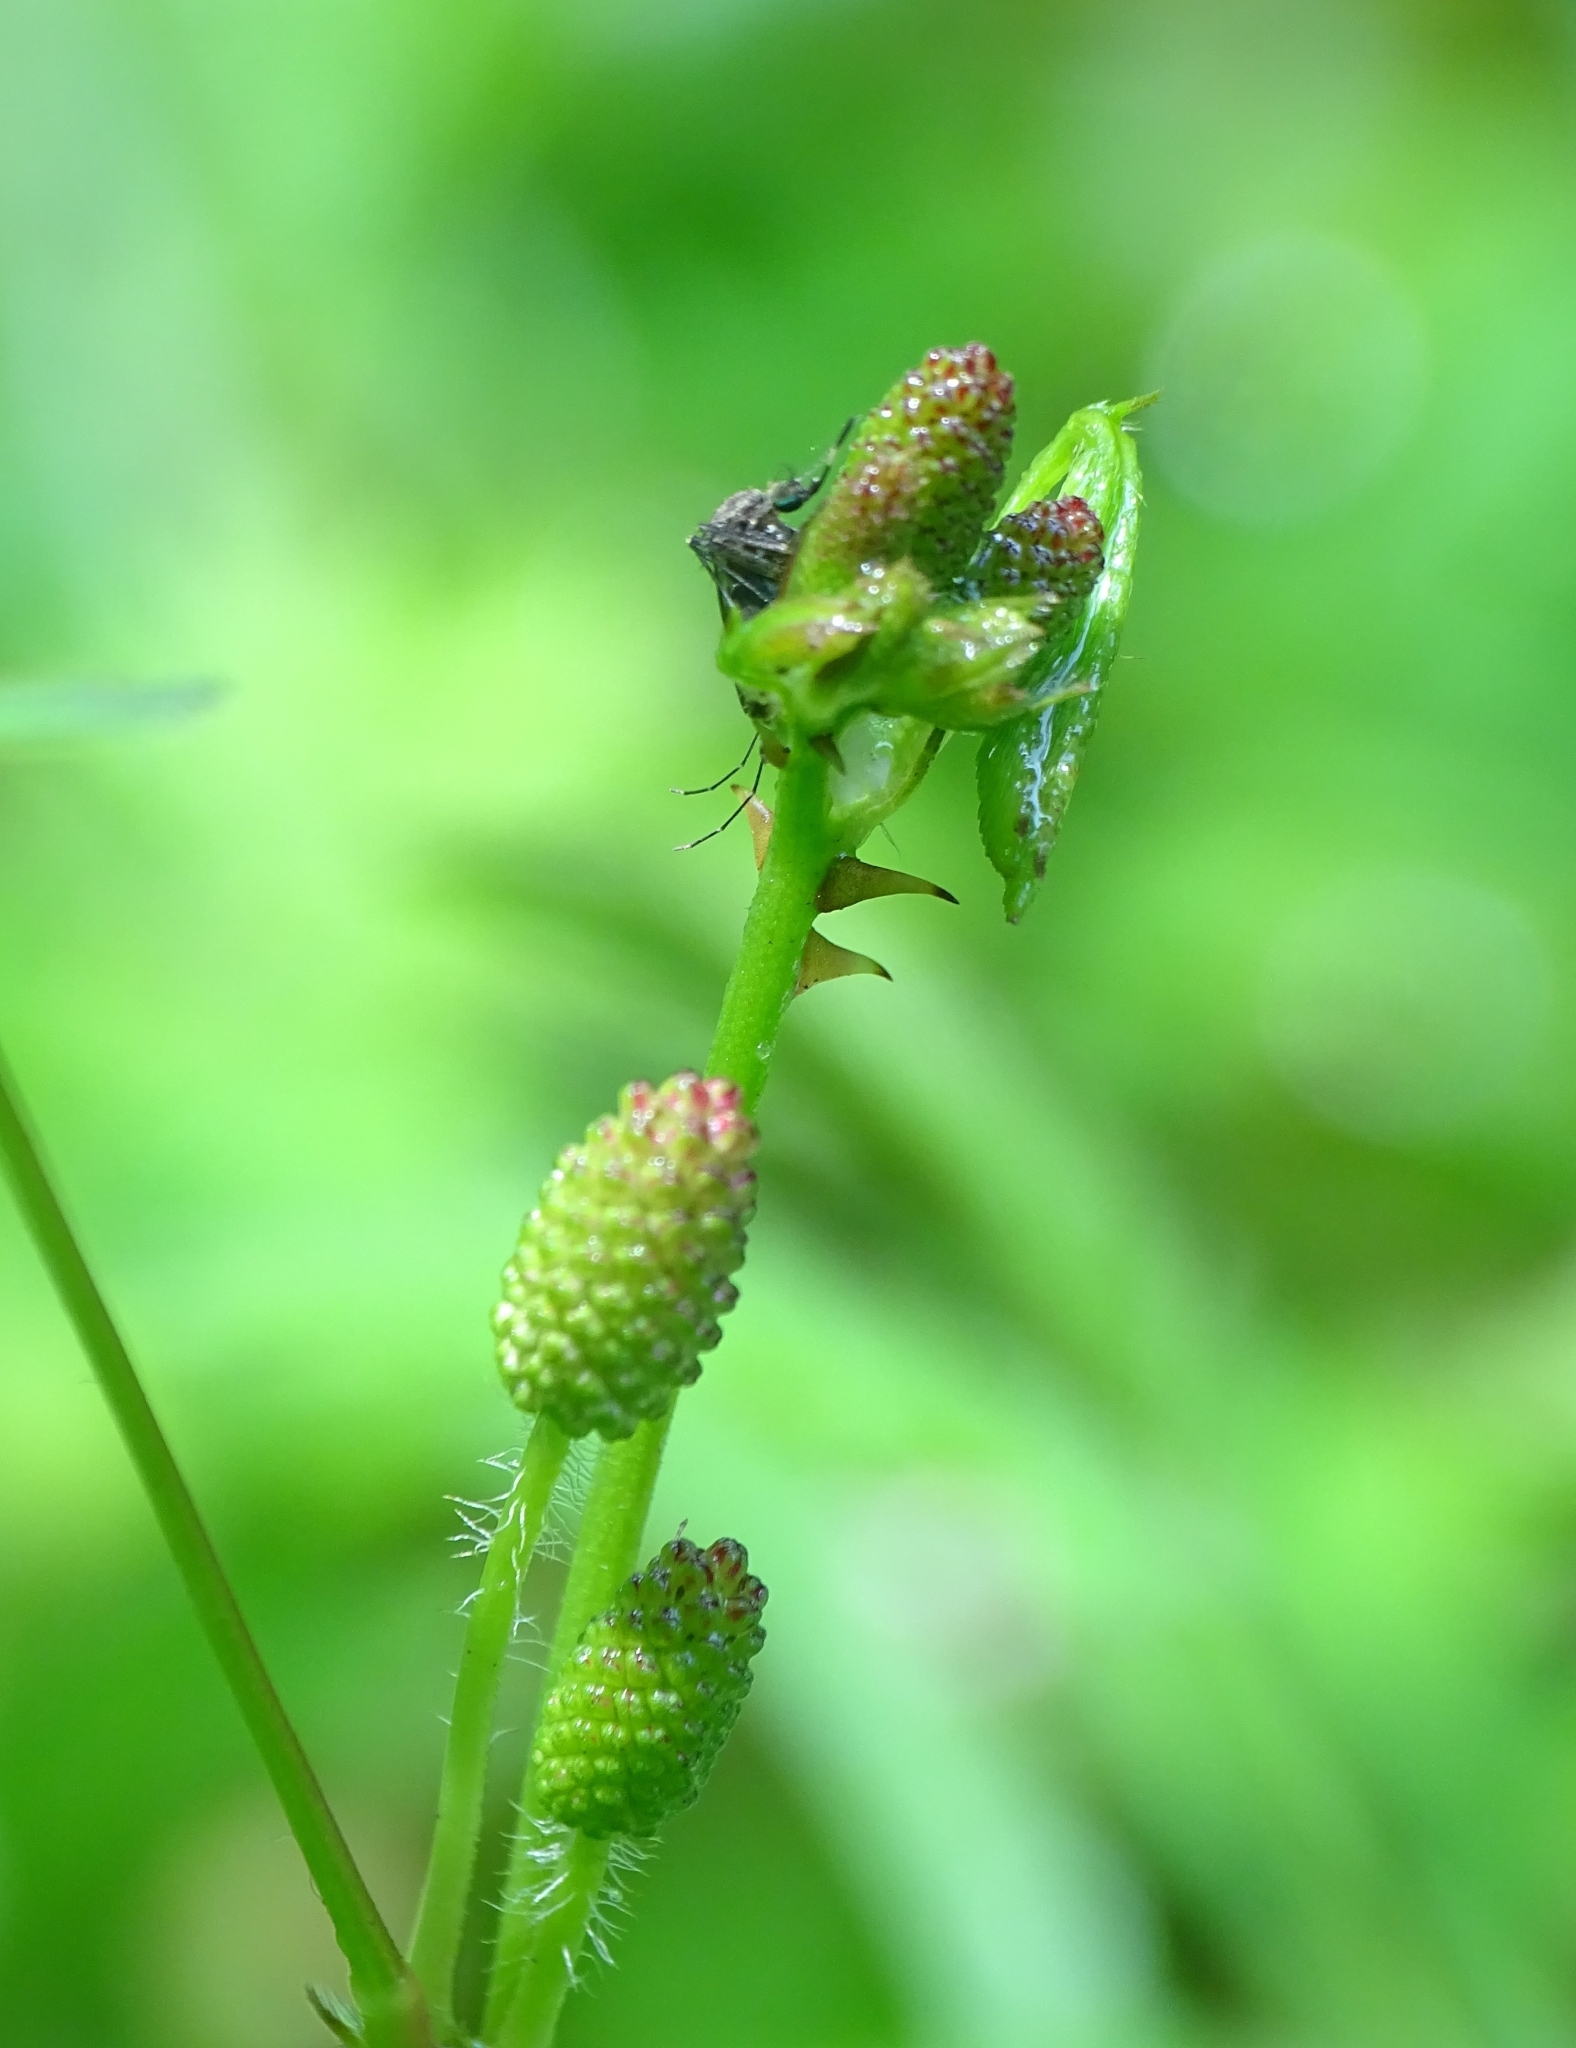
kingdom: Plantae
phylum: Tracheophyta
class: Magnoliopsida
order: Fabales
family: Fabaceae
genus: Mimosa
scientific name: Mimosa diplotricha
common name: Giant sensitive-plant
